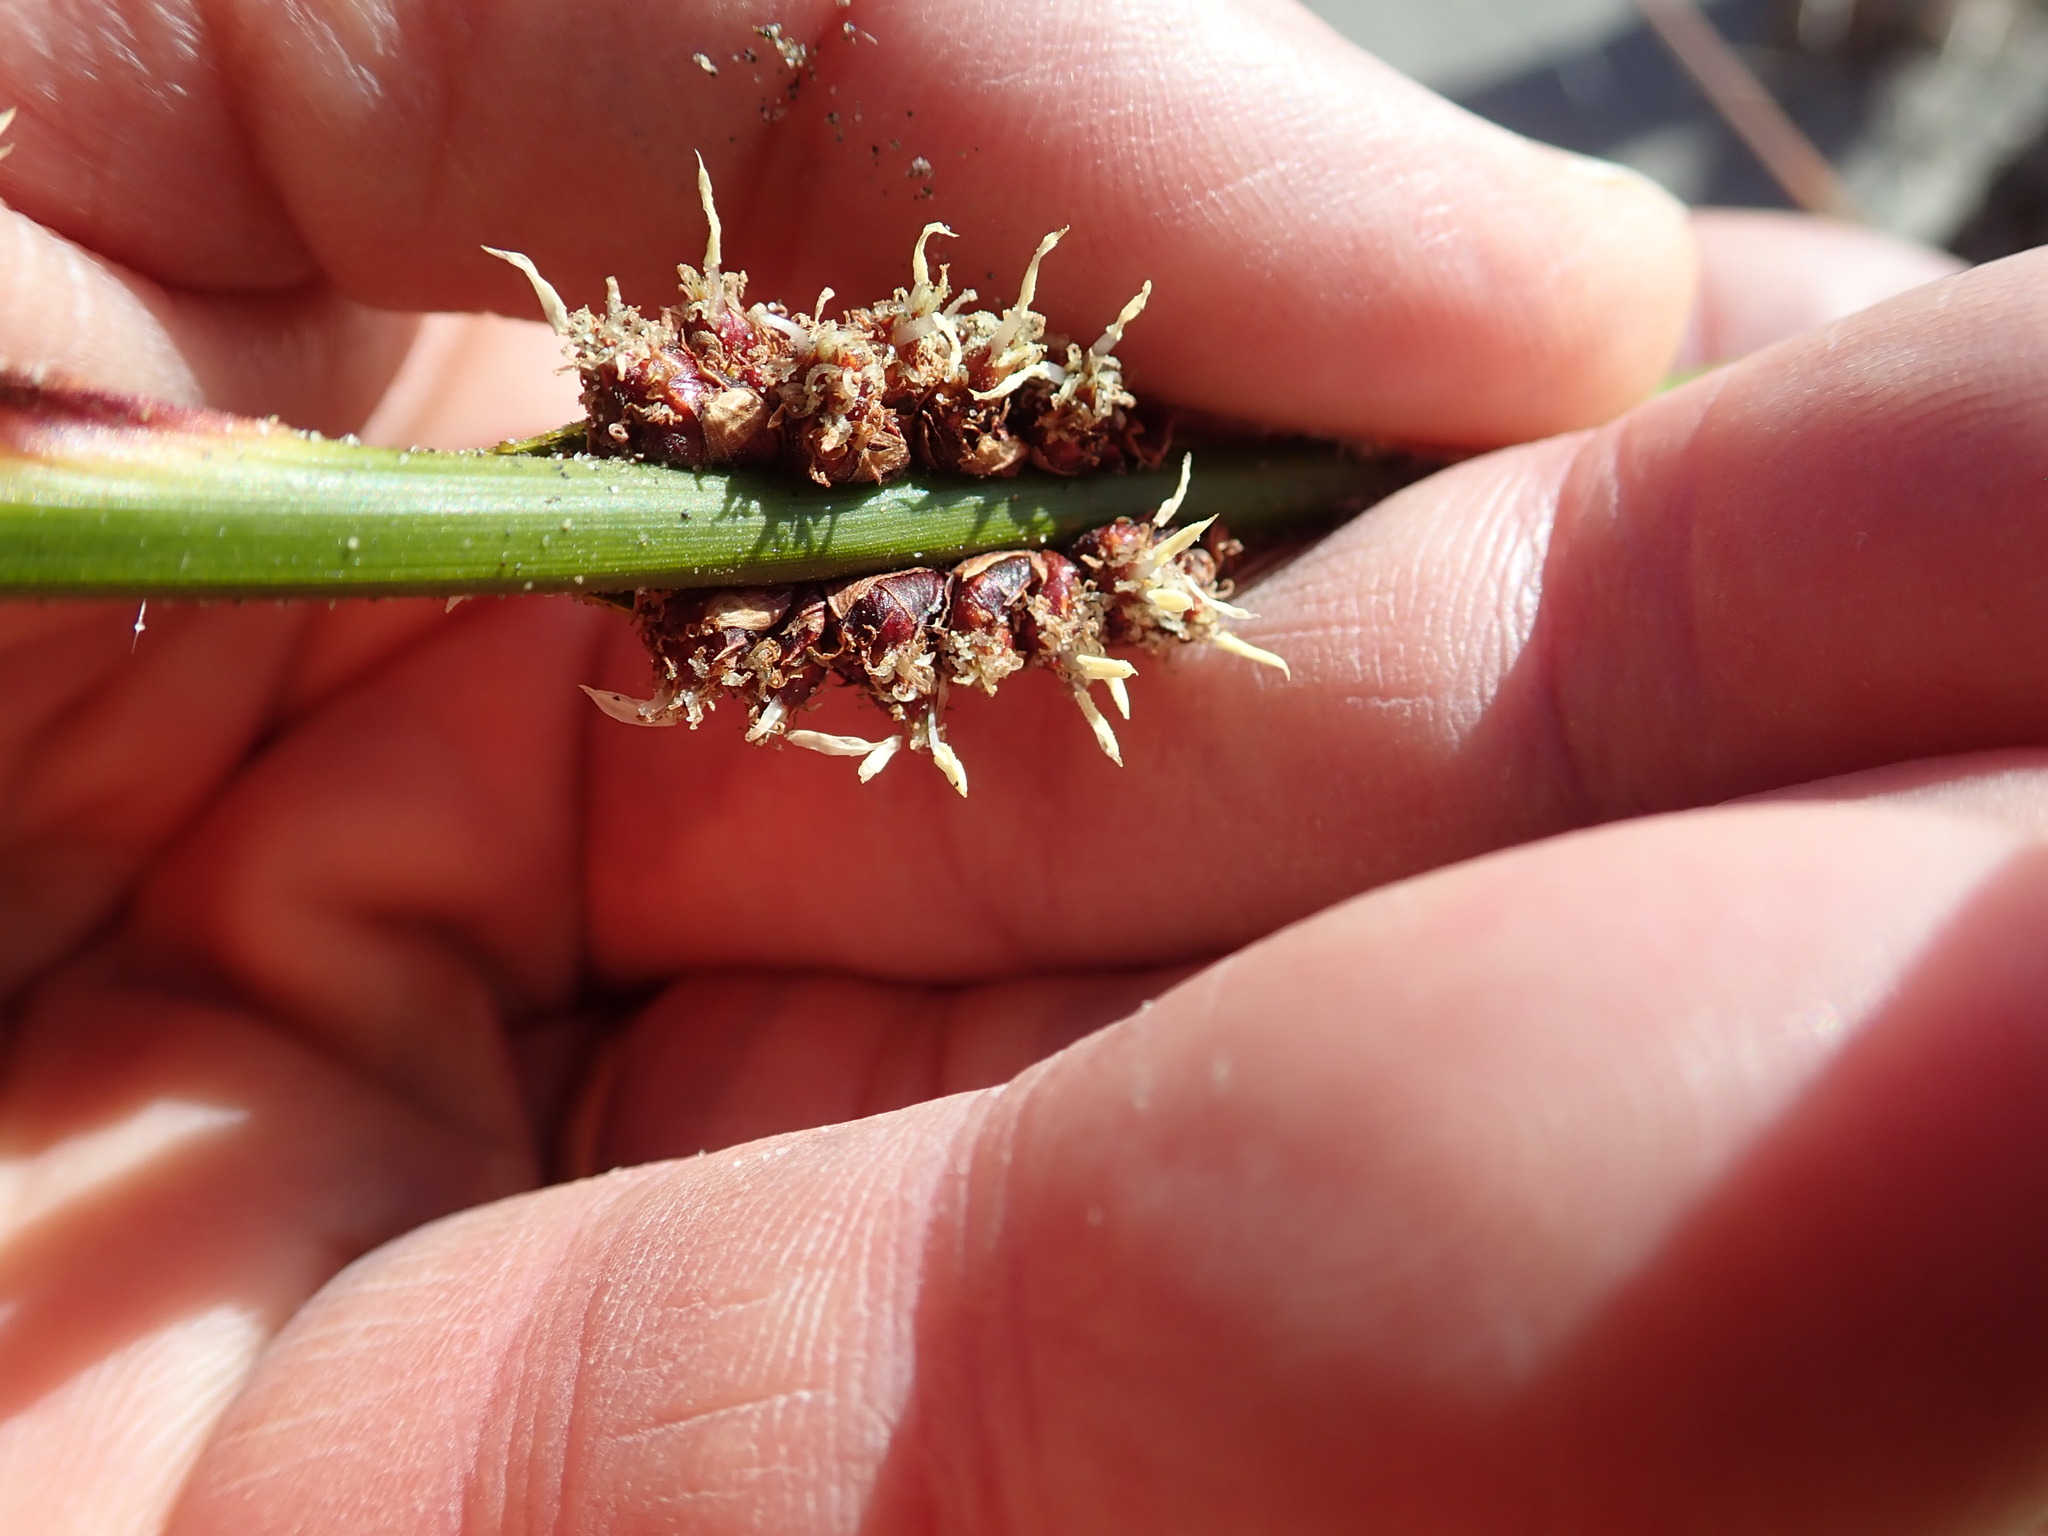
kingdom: Plantae
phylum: Tracheophyta
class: Liliopsida
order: Poales
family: Cyperaceae
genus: Ficinia
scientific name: Ficinia spiralis
